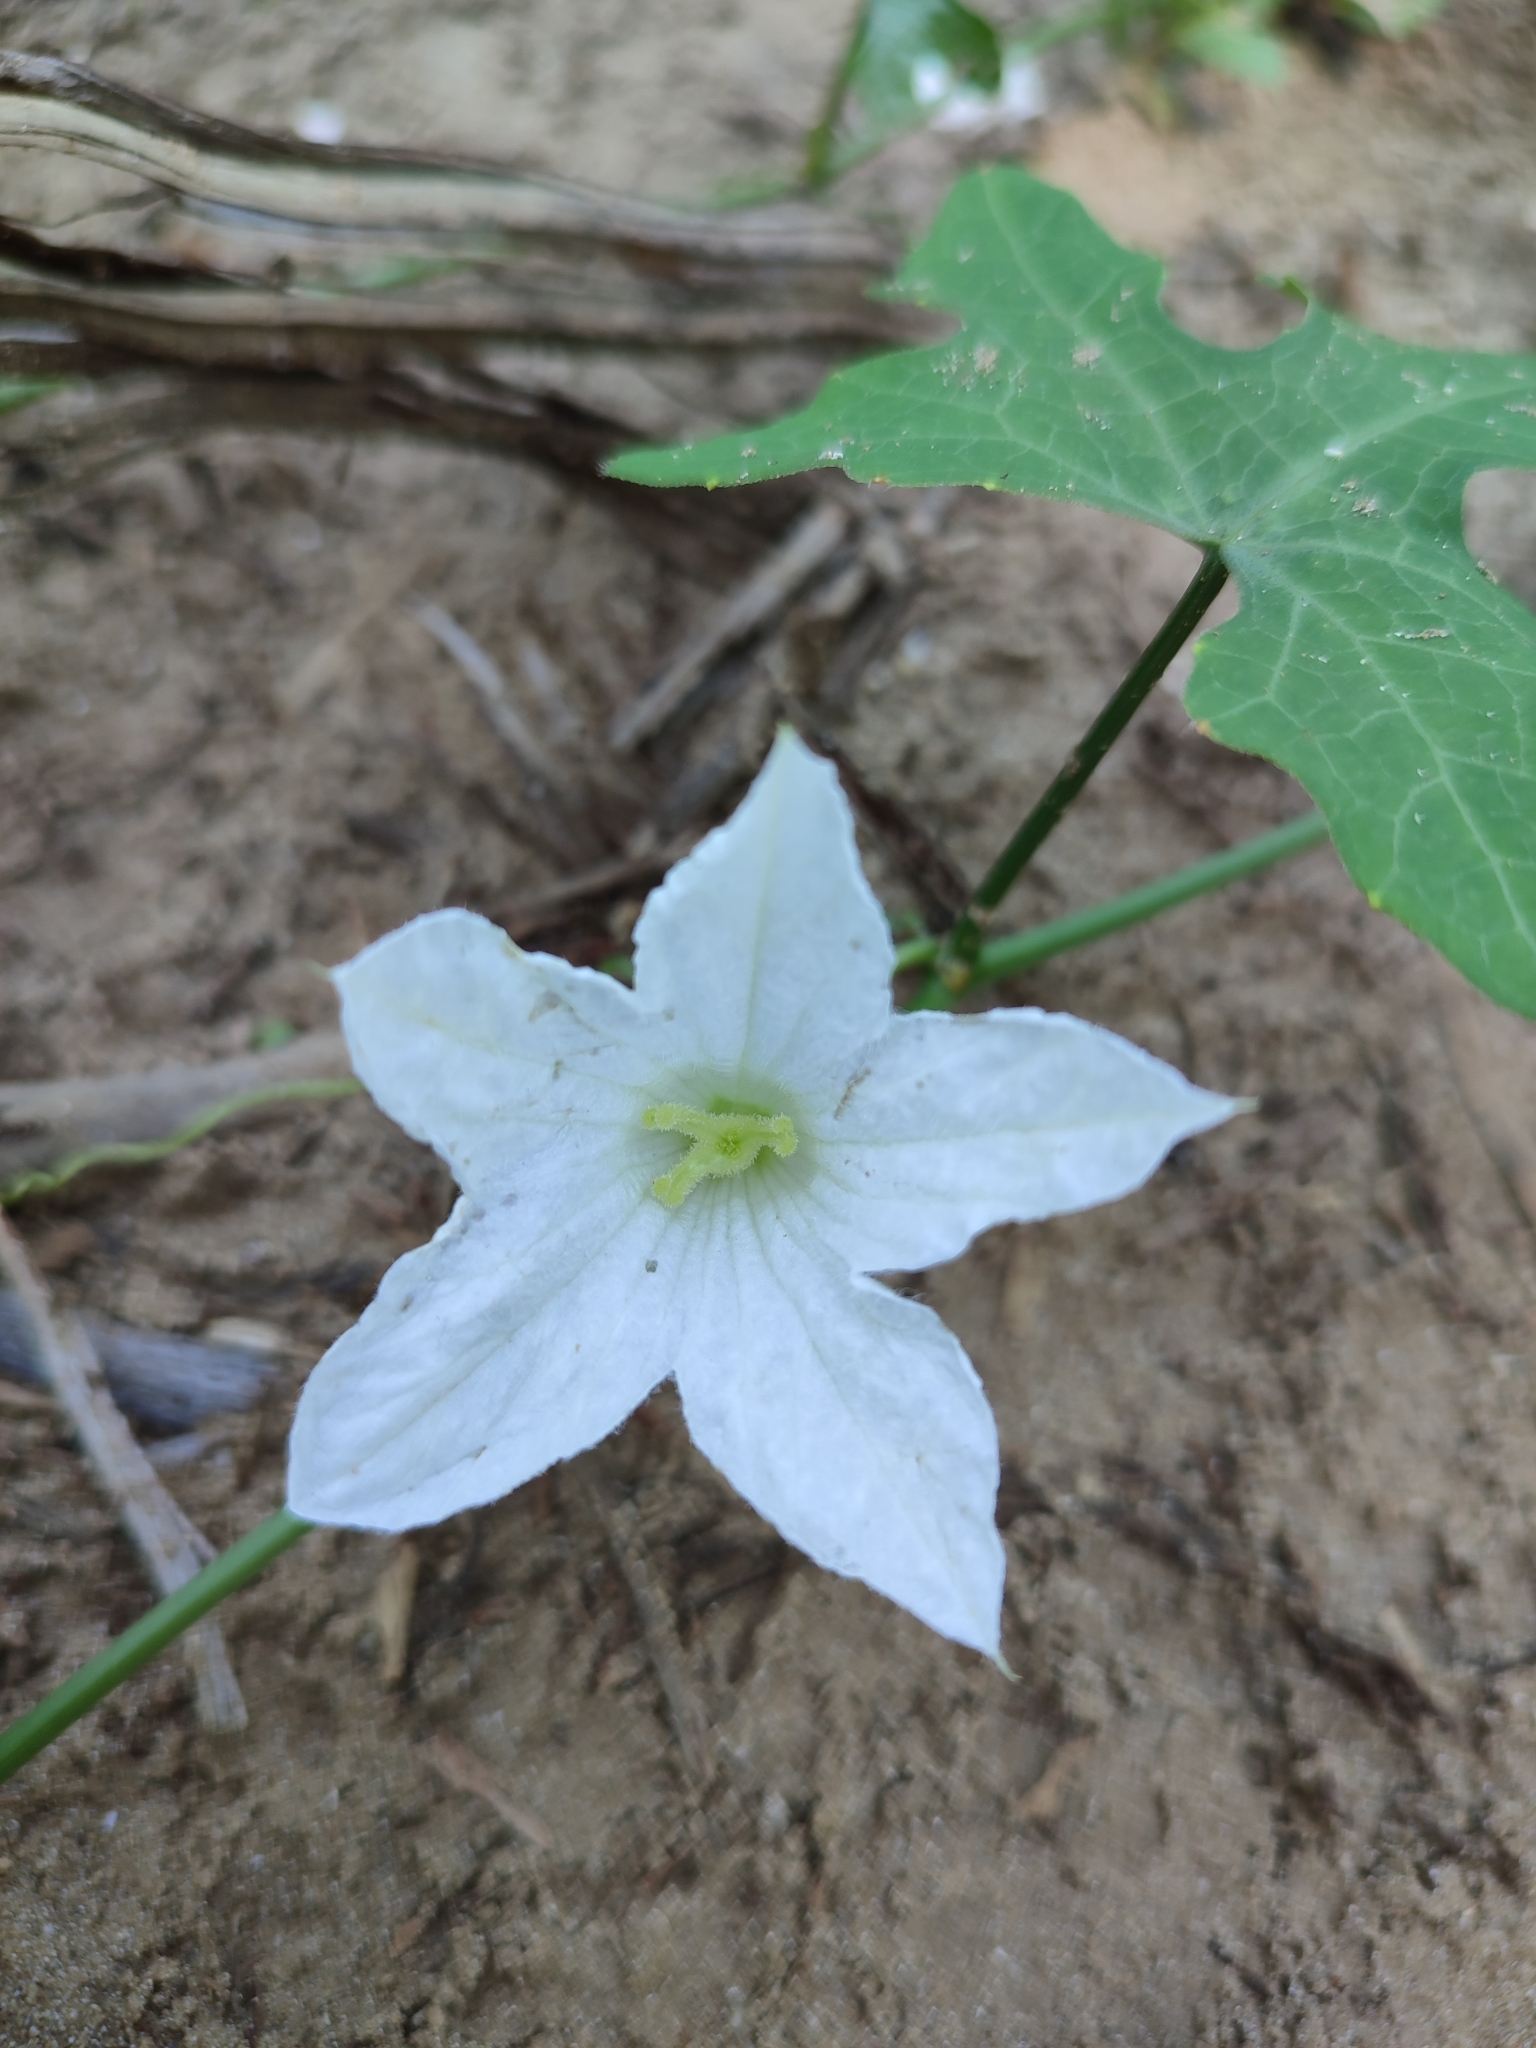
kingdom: Plantae
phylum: Tracheophyta
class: Magnoliopsida
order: Cucurbitales
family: Cucurbitaceae
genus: Coccinia
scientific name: Coccinia grandis
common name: Ivy gourd
